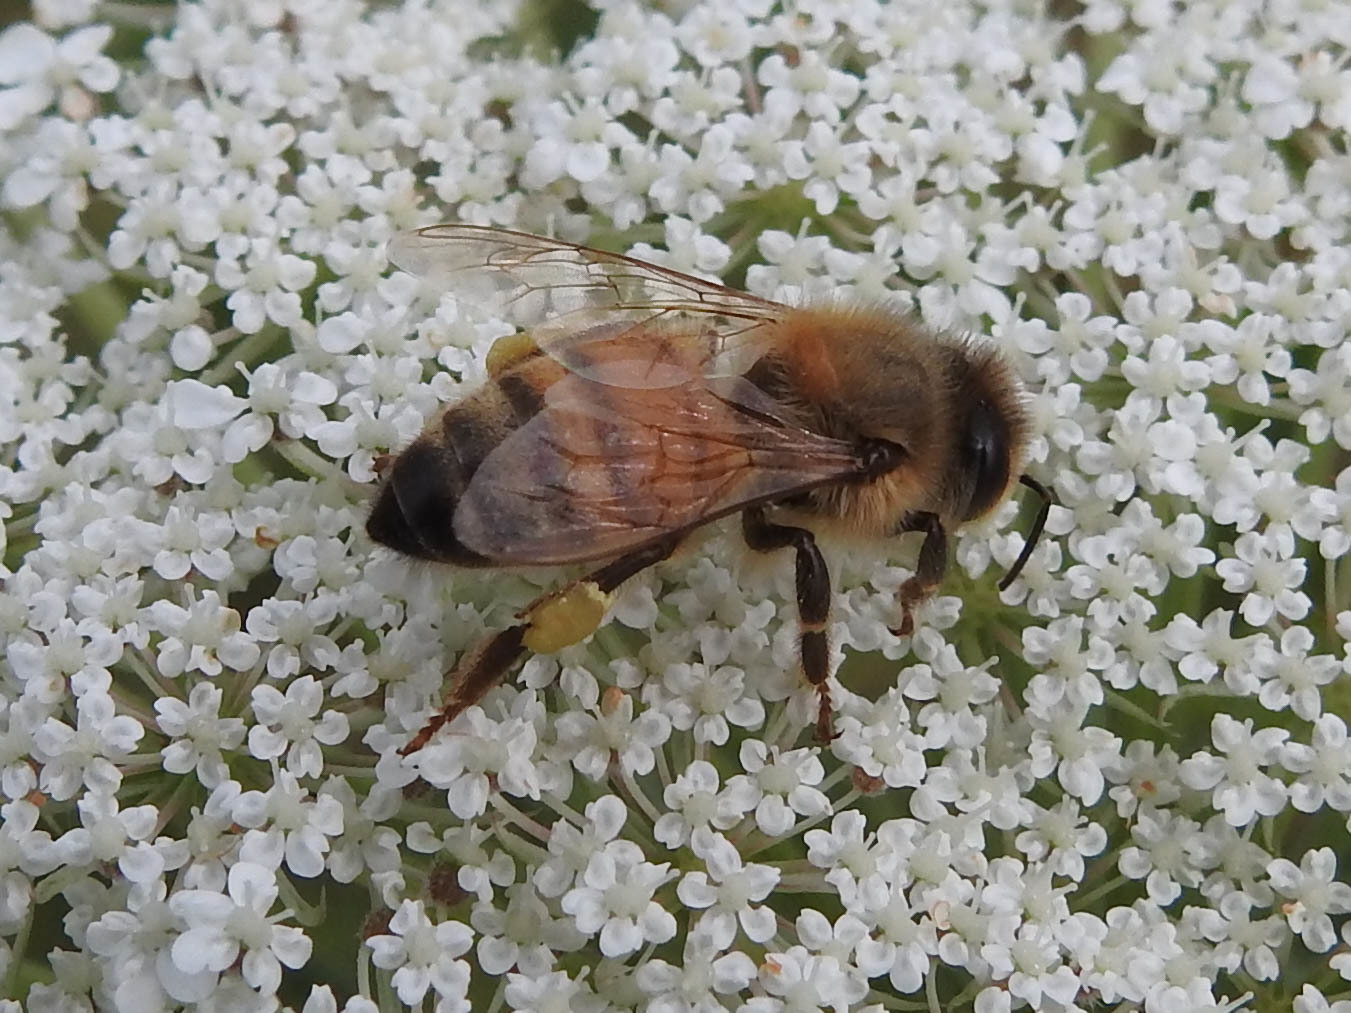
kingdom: Animalia
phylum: Arthropoda
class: Insecta
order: Hymenoptera
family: Apidae
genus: Apis
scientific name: Apis mellifera
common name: Honey bee
